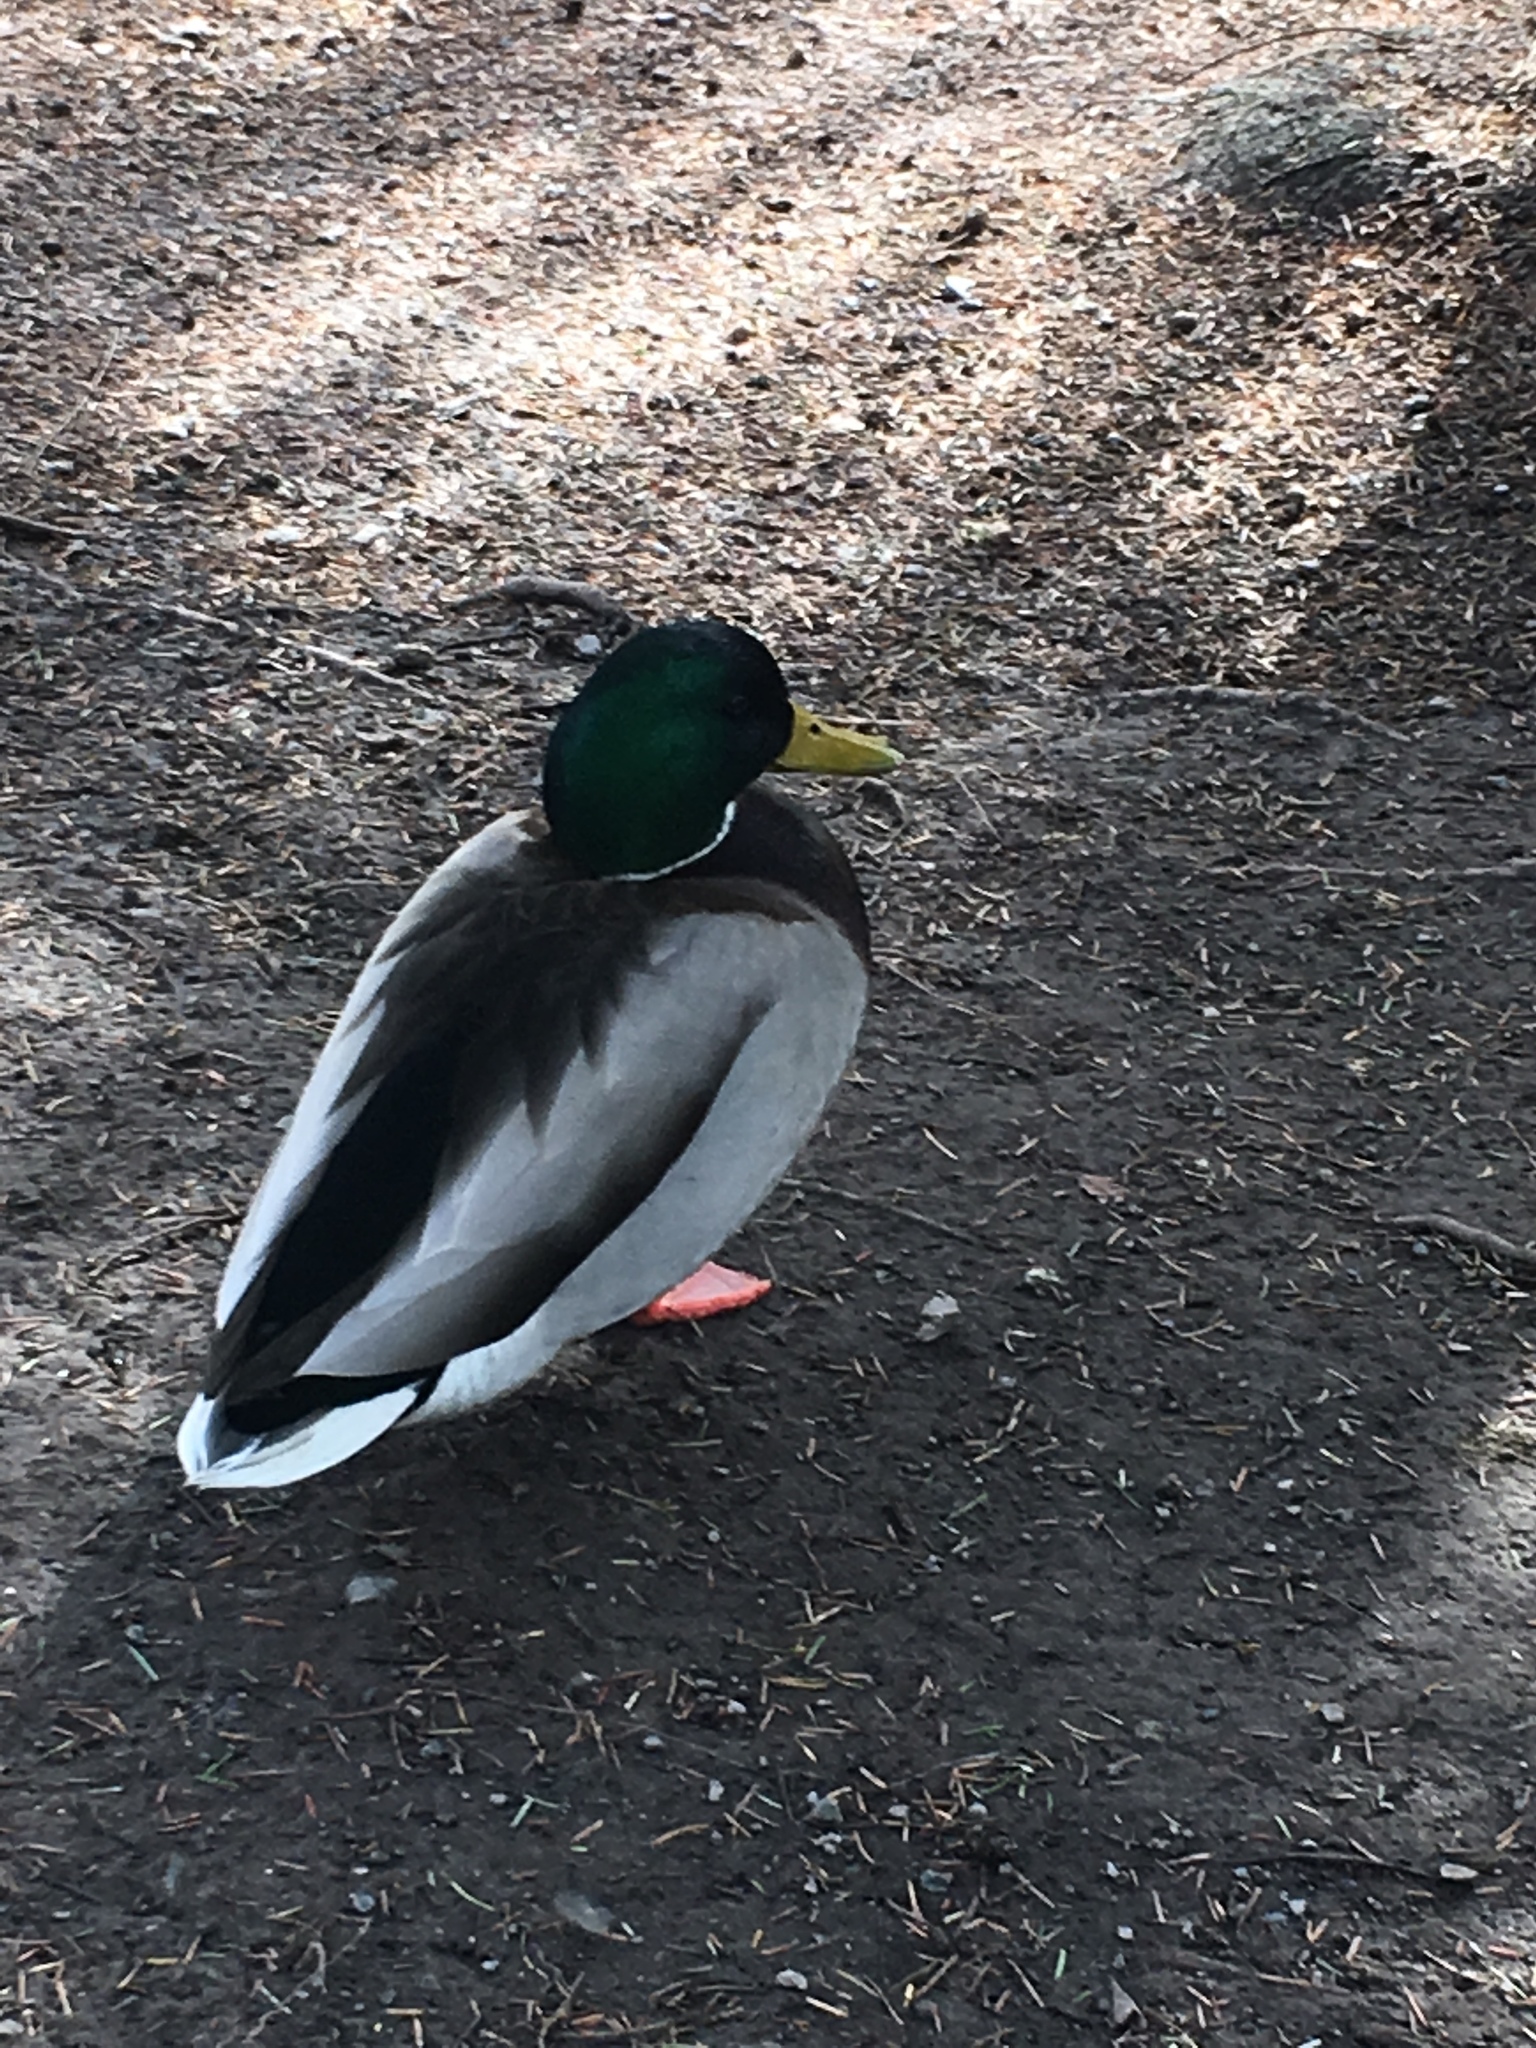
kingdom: Animalia
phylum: Chordata
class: Aves
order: Anseriformes
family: Anatidae
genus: Anas
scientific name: Anas platyrhynchos
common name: Mallard
